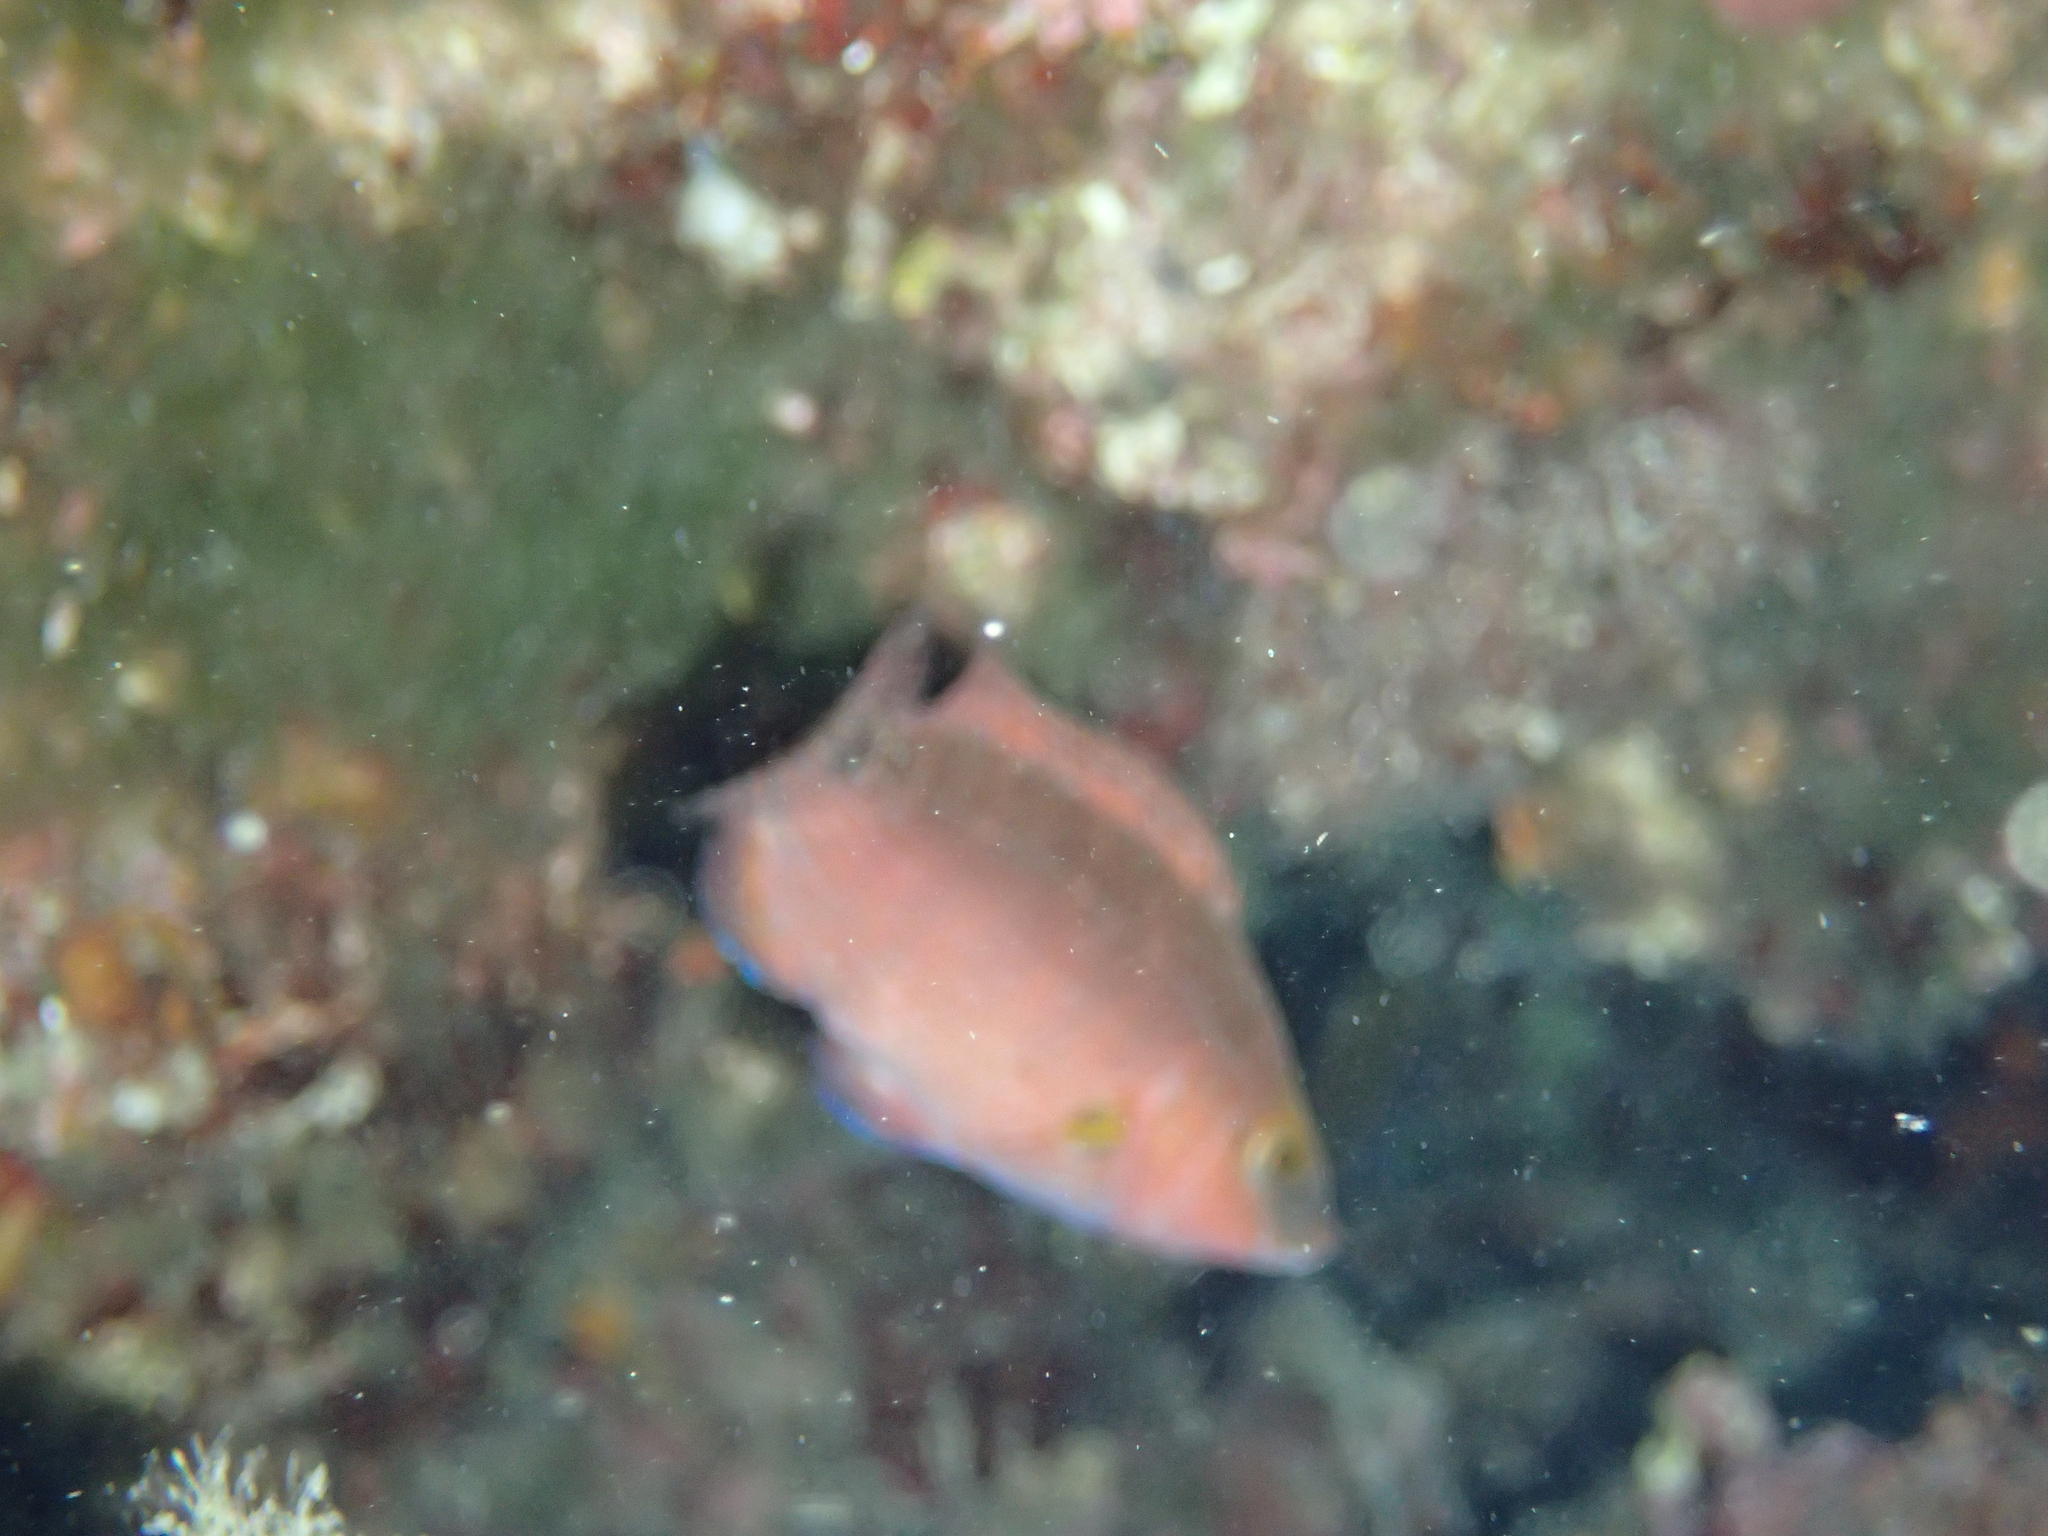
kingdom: Animalia
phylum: Chordata
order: Perciformes
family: Labridae
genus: Symphodus
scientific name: Symphodus mediterraneus
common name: Axillary wrasse
